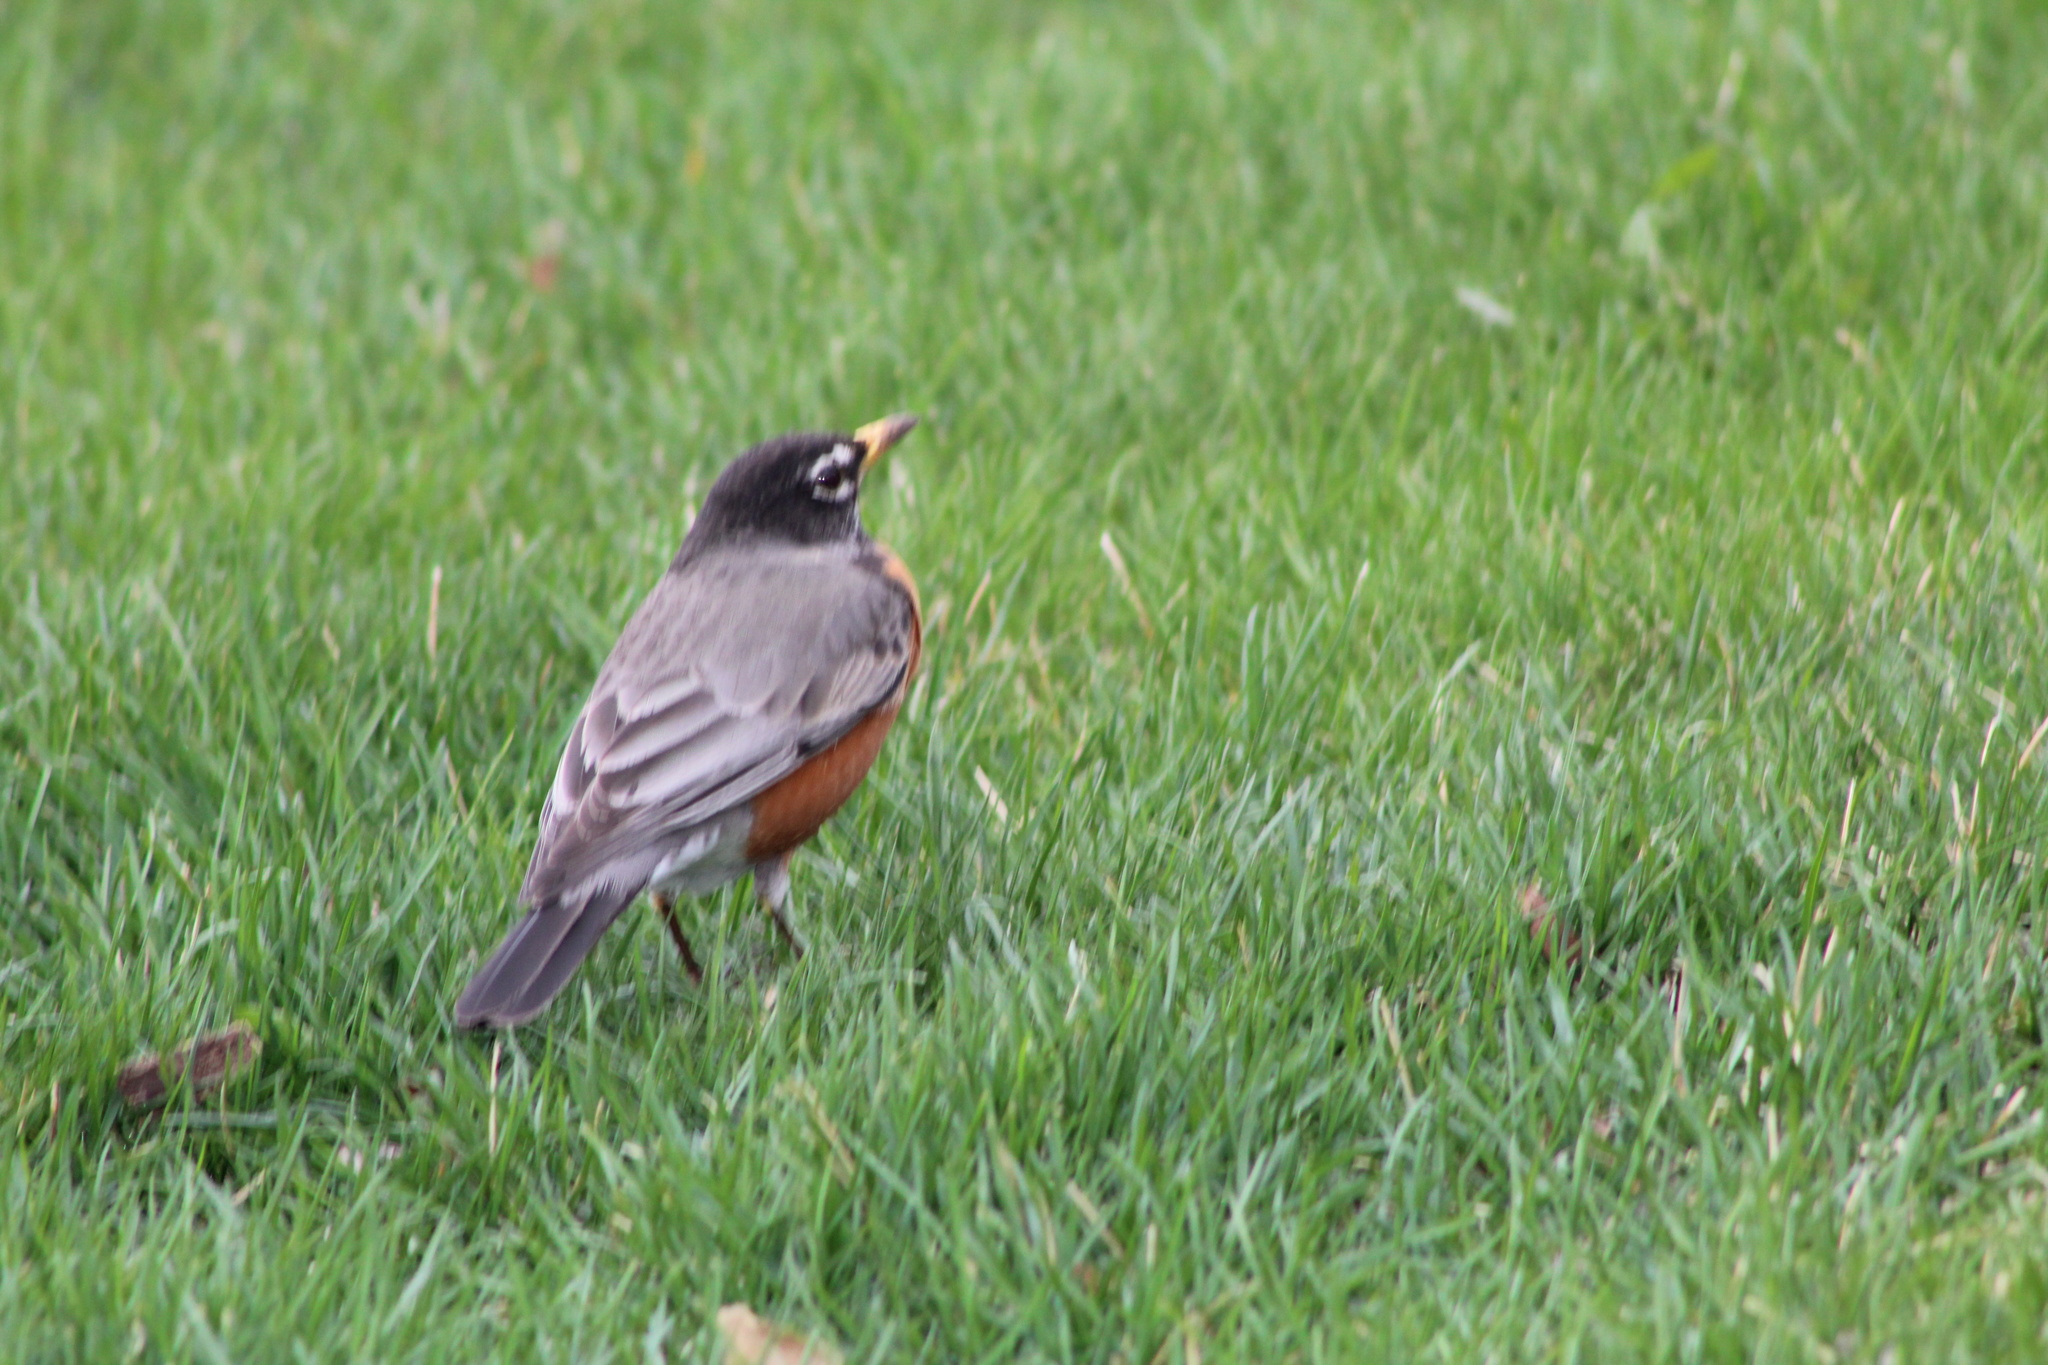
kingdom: Animalia
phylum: Chordata
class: Aves
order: Passeriformes
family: Turdidae
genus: Turdus
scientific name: Turdus migratorius
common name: American robin
